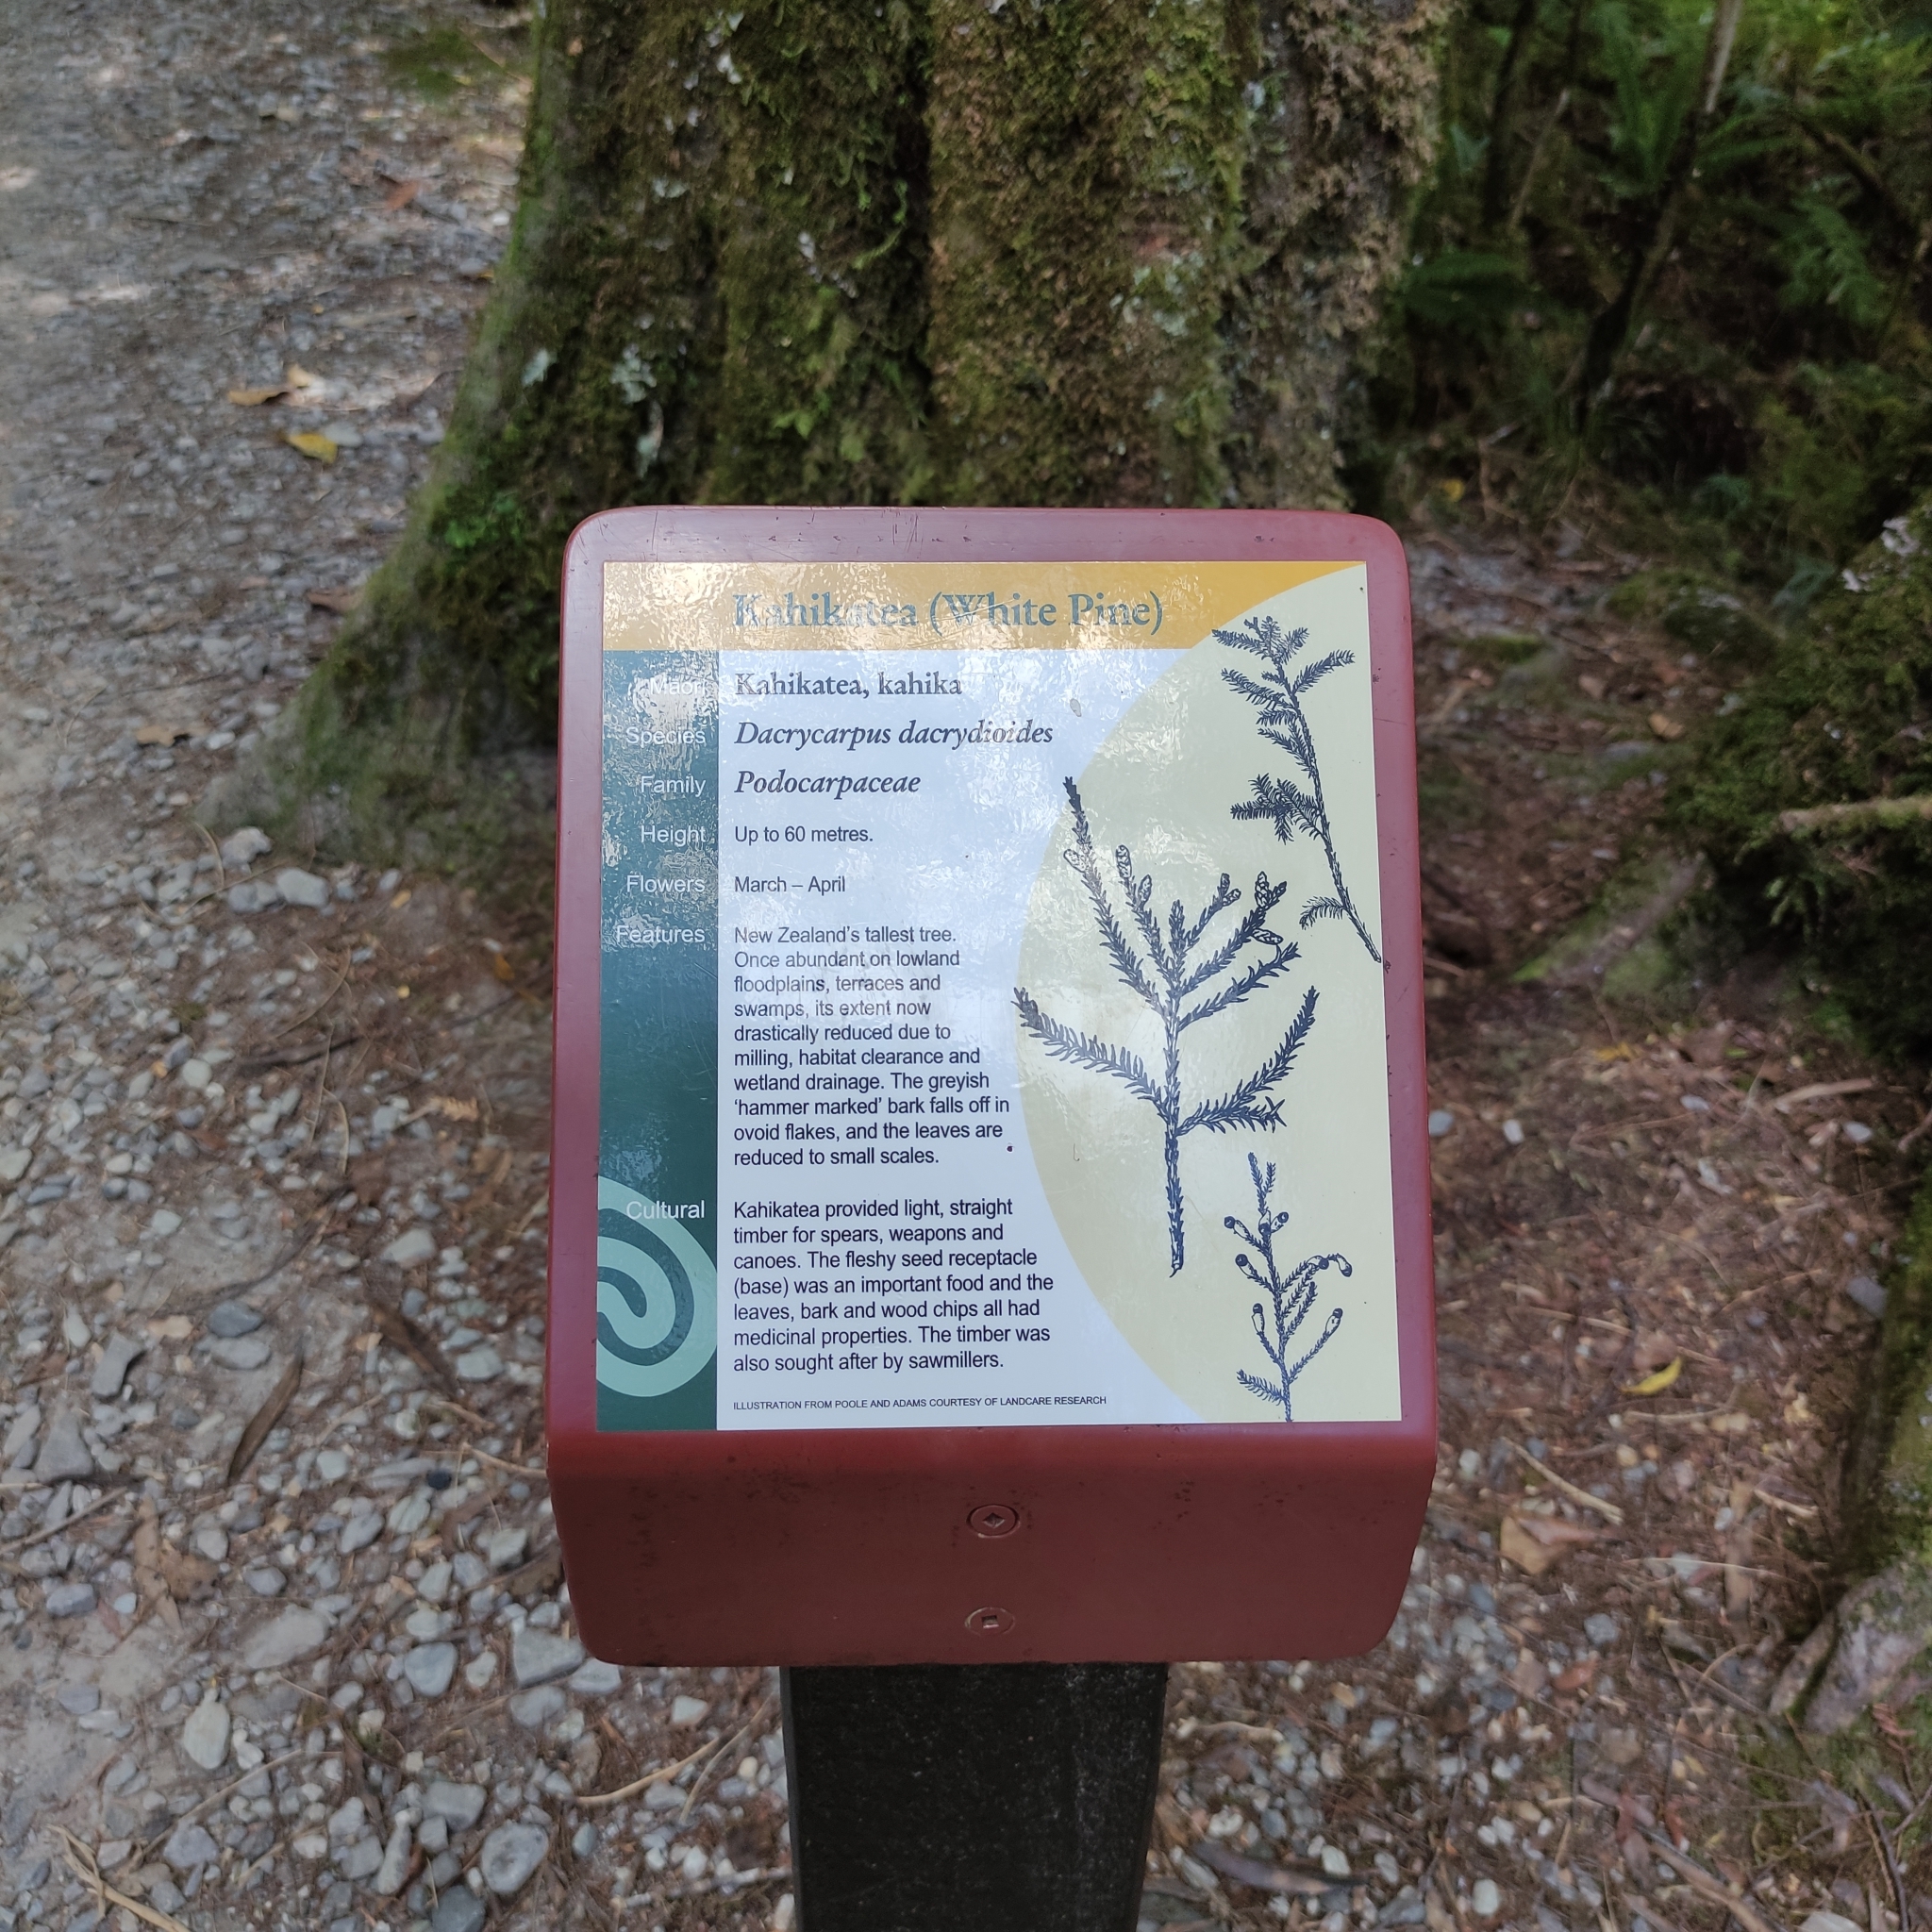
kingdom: Plantae
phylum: Tracheophyta
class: Pinopsida
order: Pinales
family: Podocarpaceae
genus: Dacrycarpus
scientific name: Dacrycarpus dacrydioides
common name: White pine
